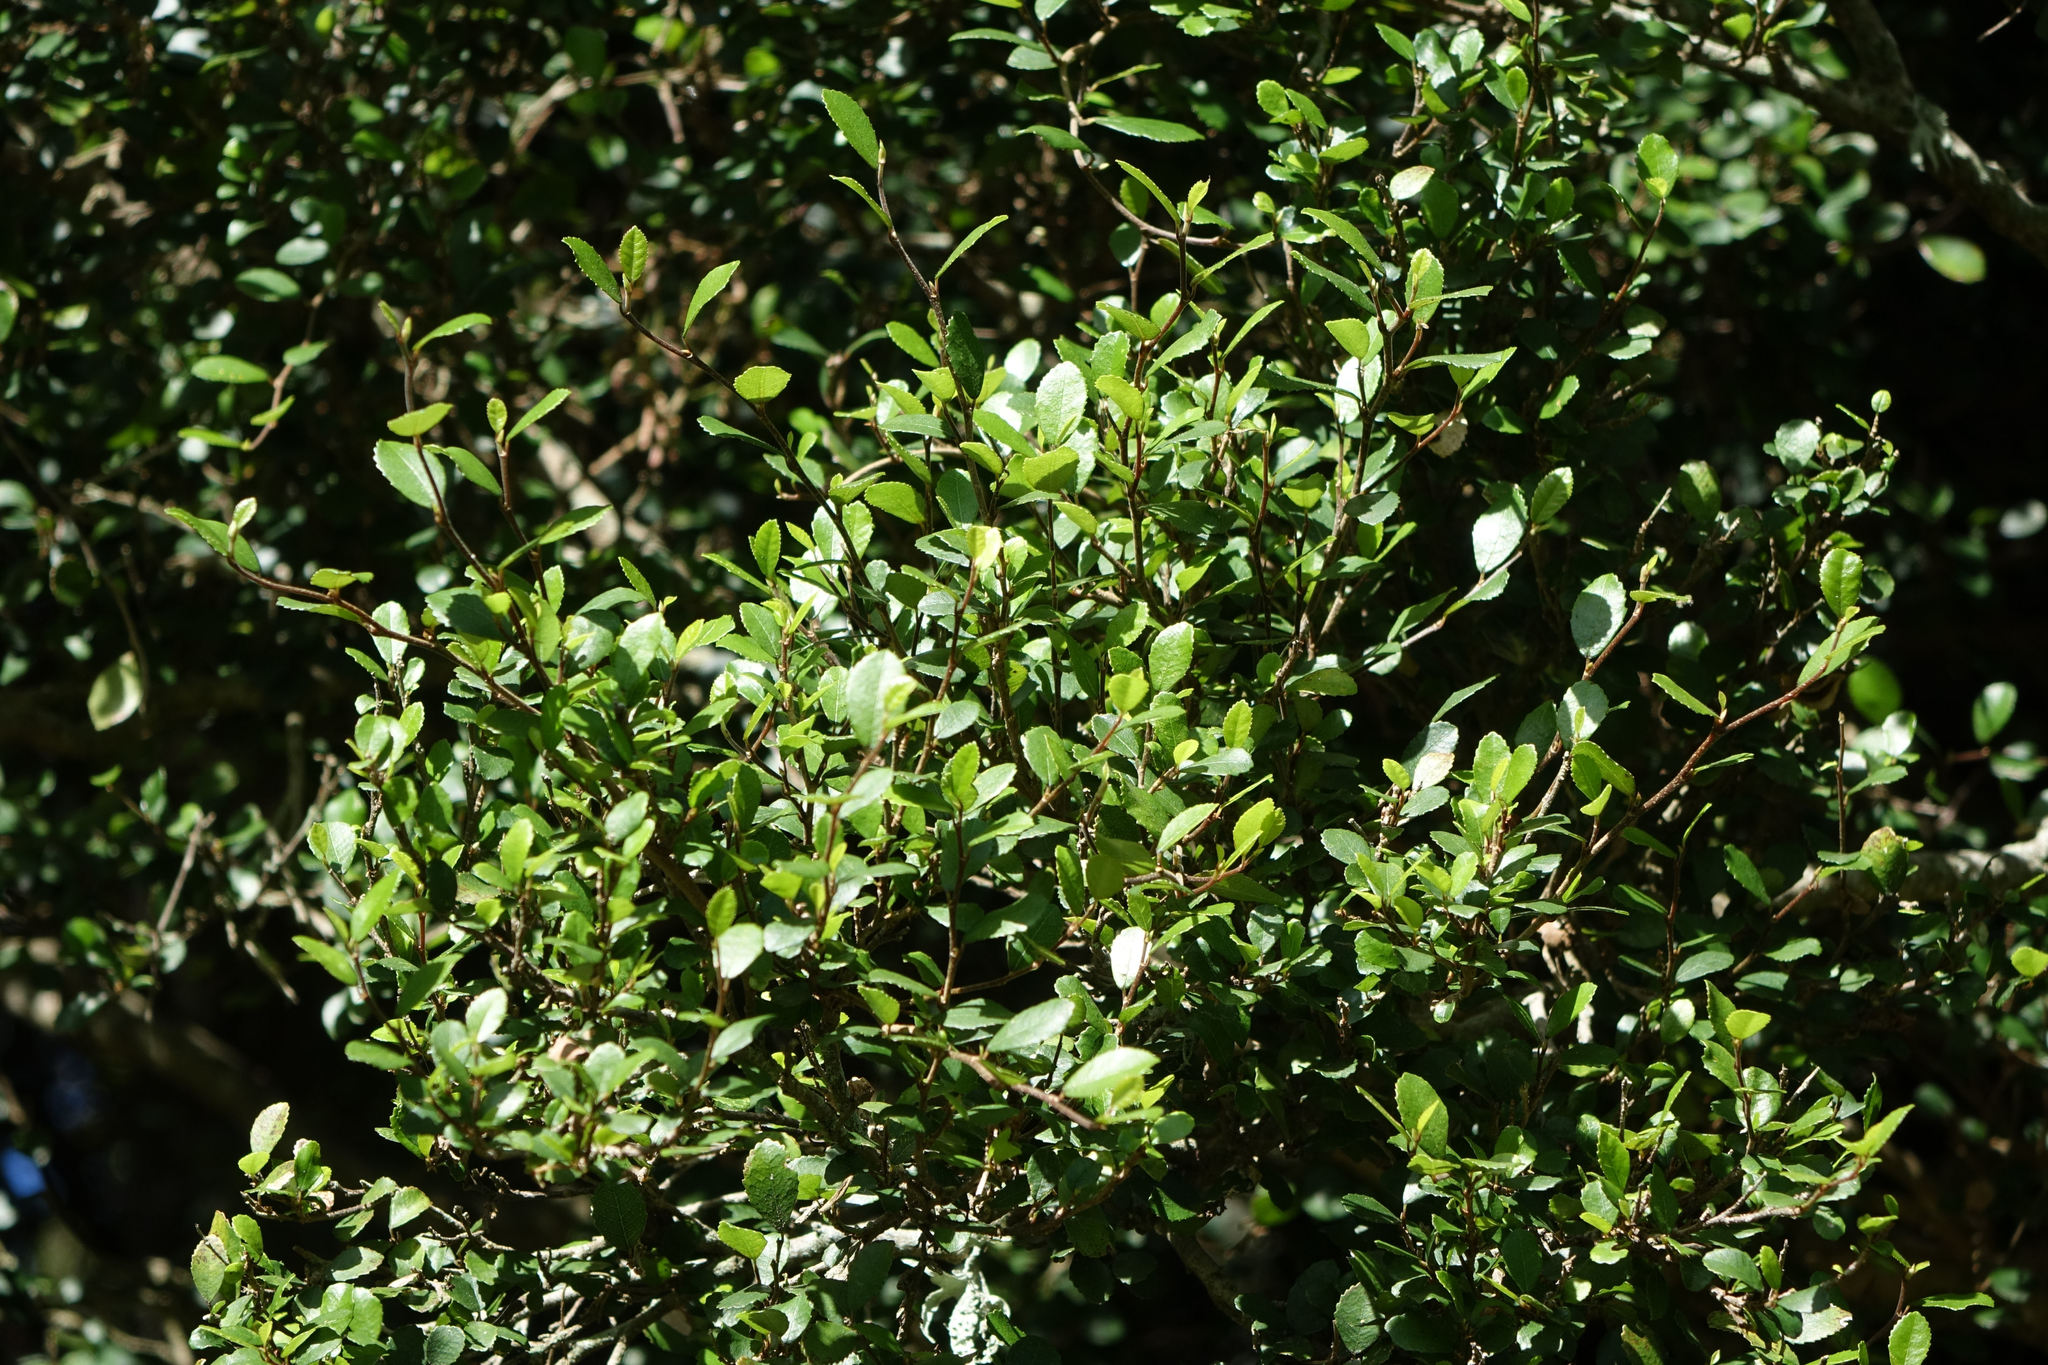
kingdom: Plantae
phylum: Tracheophyta
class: Magnoliopsida
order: Rosales
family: Moraceae
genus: Paratrophis
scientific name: Paratrophis microphylla
